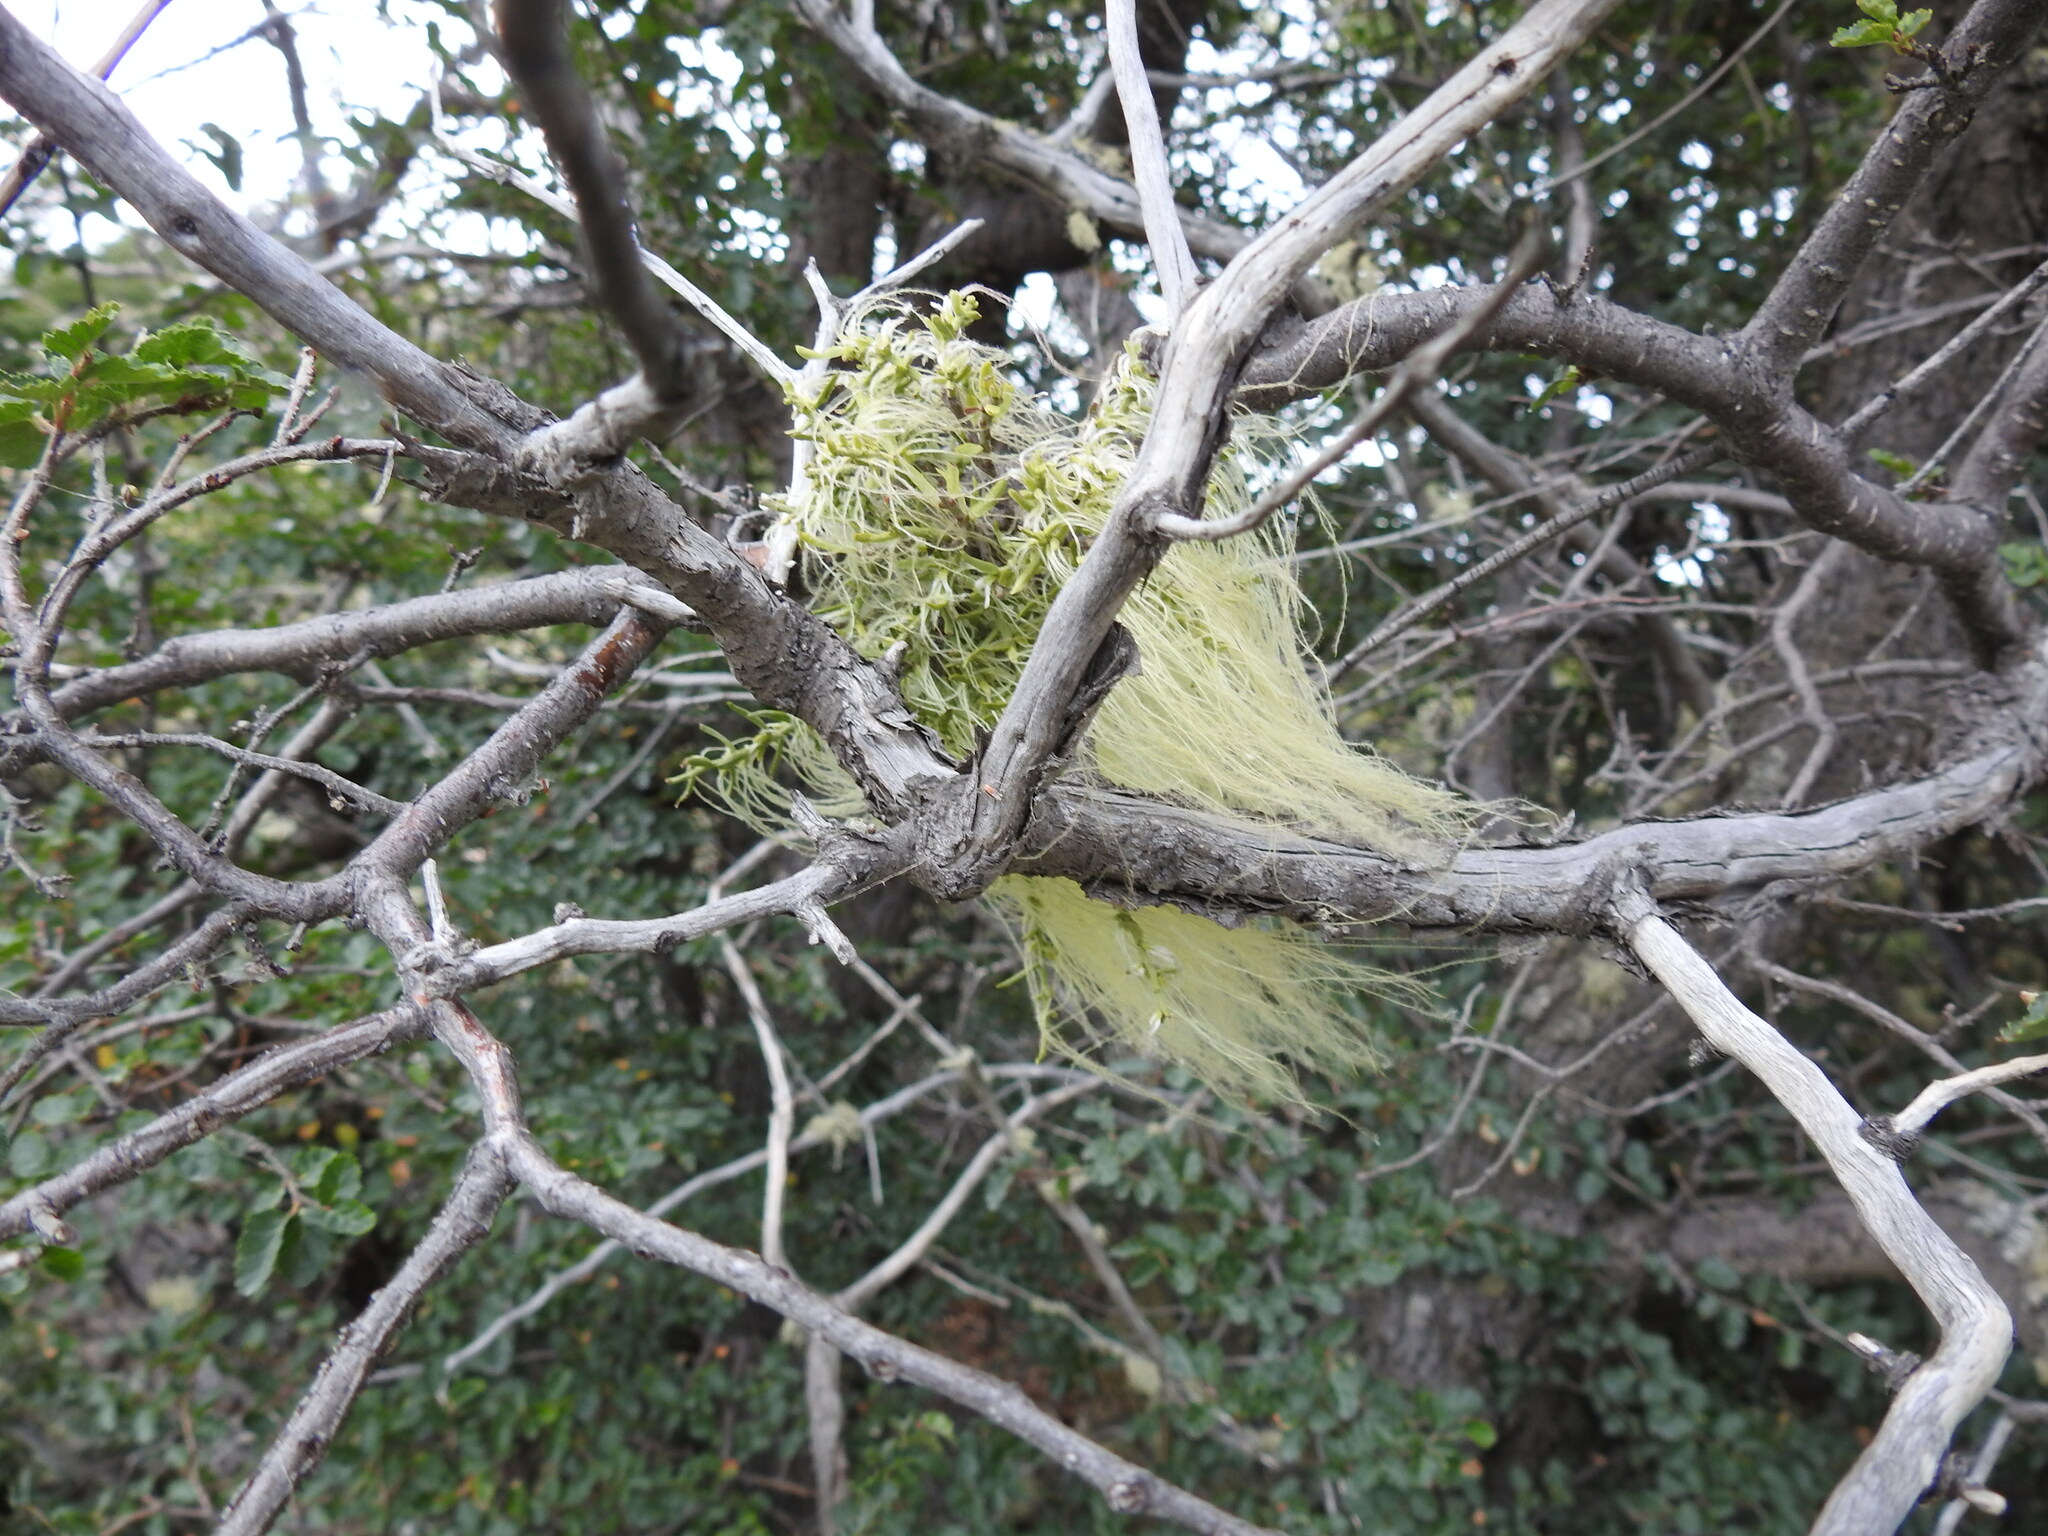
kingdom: Plantae
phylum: Tracheophyta
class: Magnoliopsida
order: Santalales
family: Misodendraceae
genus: Misodendrum
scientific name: Misodendrum linearifolium
